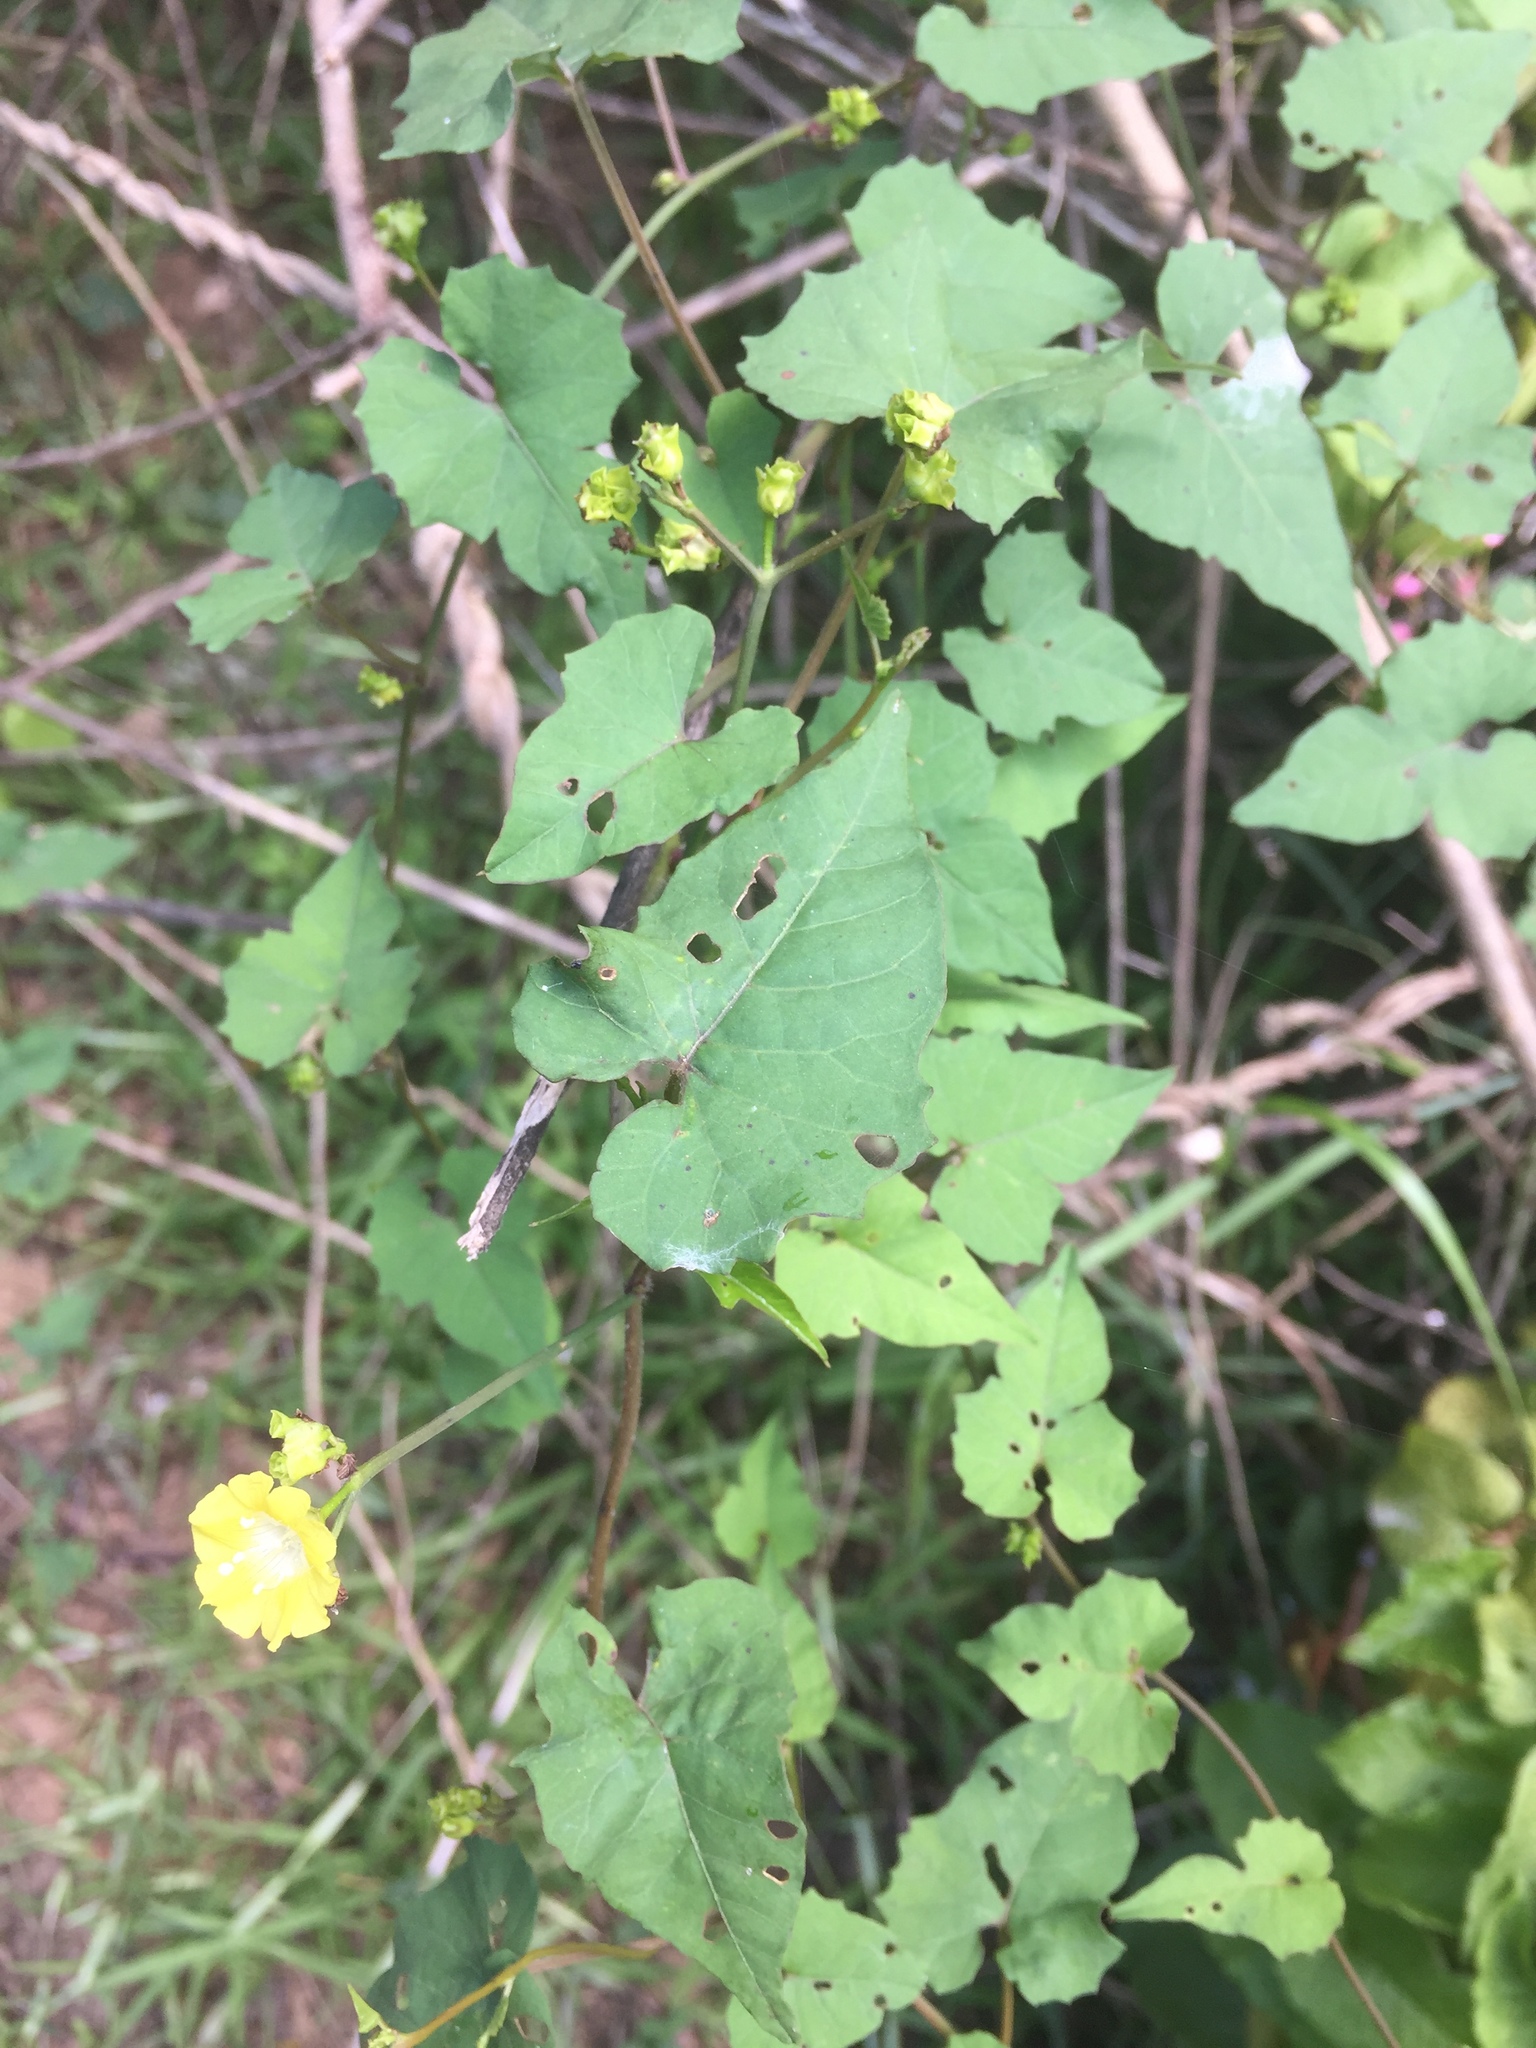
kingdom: Plantae
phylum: Tracheophyta
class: Magnoliopsida
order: Solanales
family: Convolvulaceae
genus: Merremia
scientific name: Merremia hederacea
